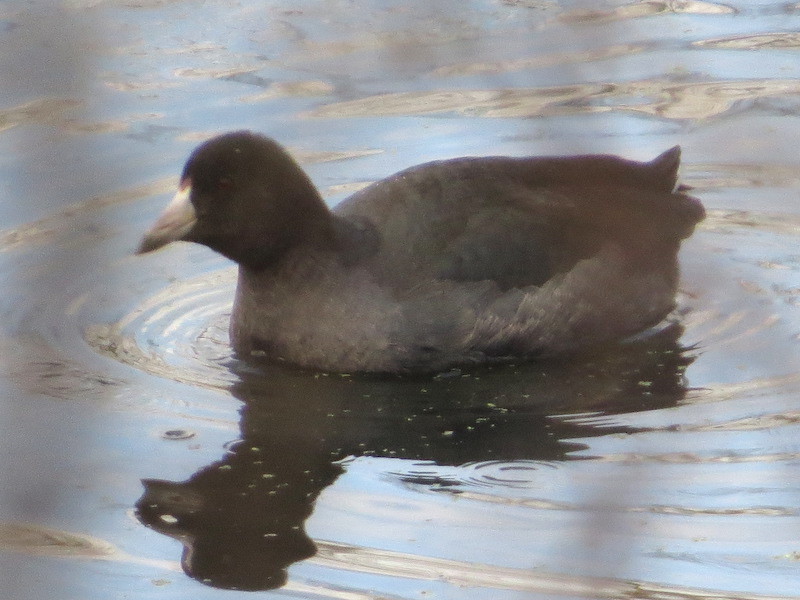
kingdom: Animalia
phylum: Chordata
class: Aves
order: Gruiformes
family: Rallidae
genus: Fulica
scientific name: Fulica americana
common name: American coot
